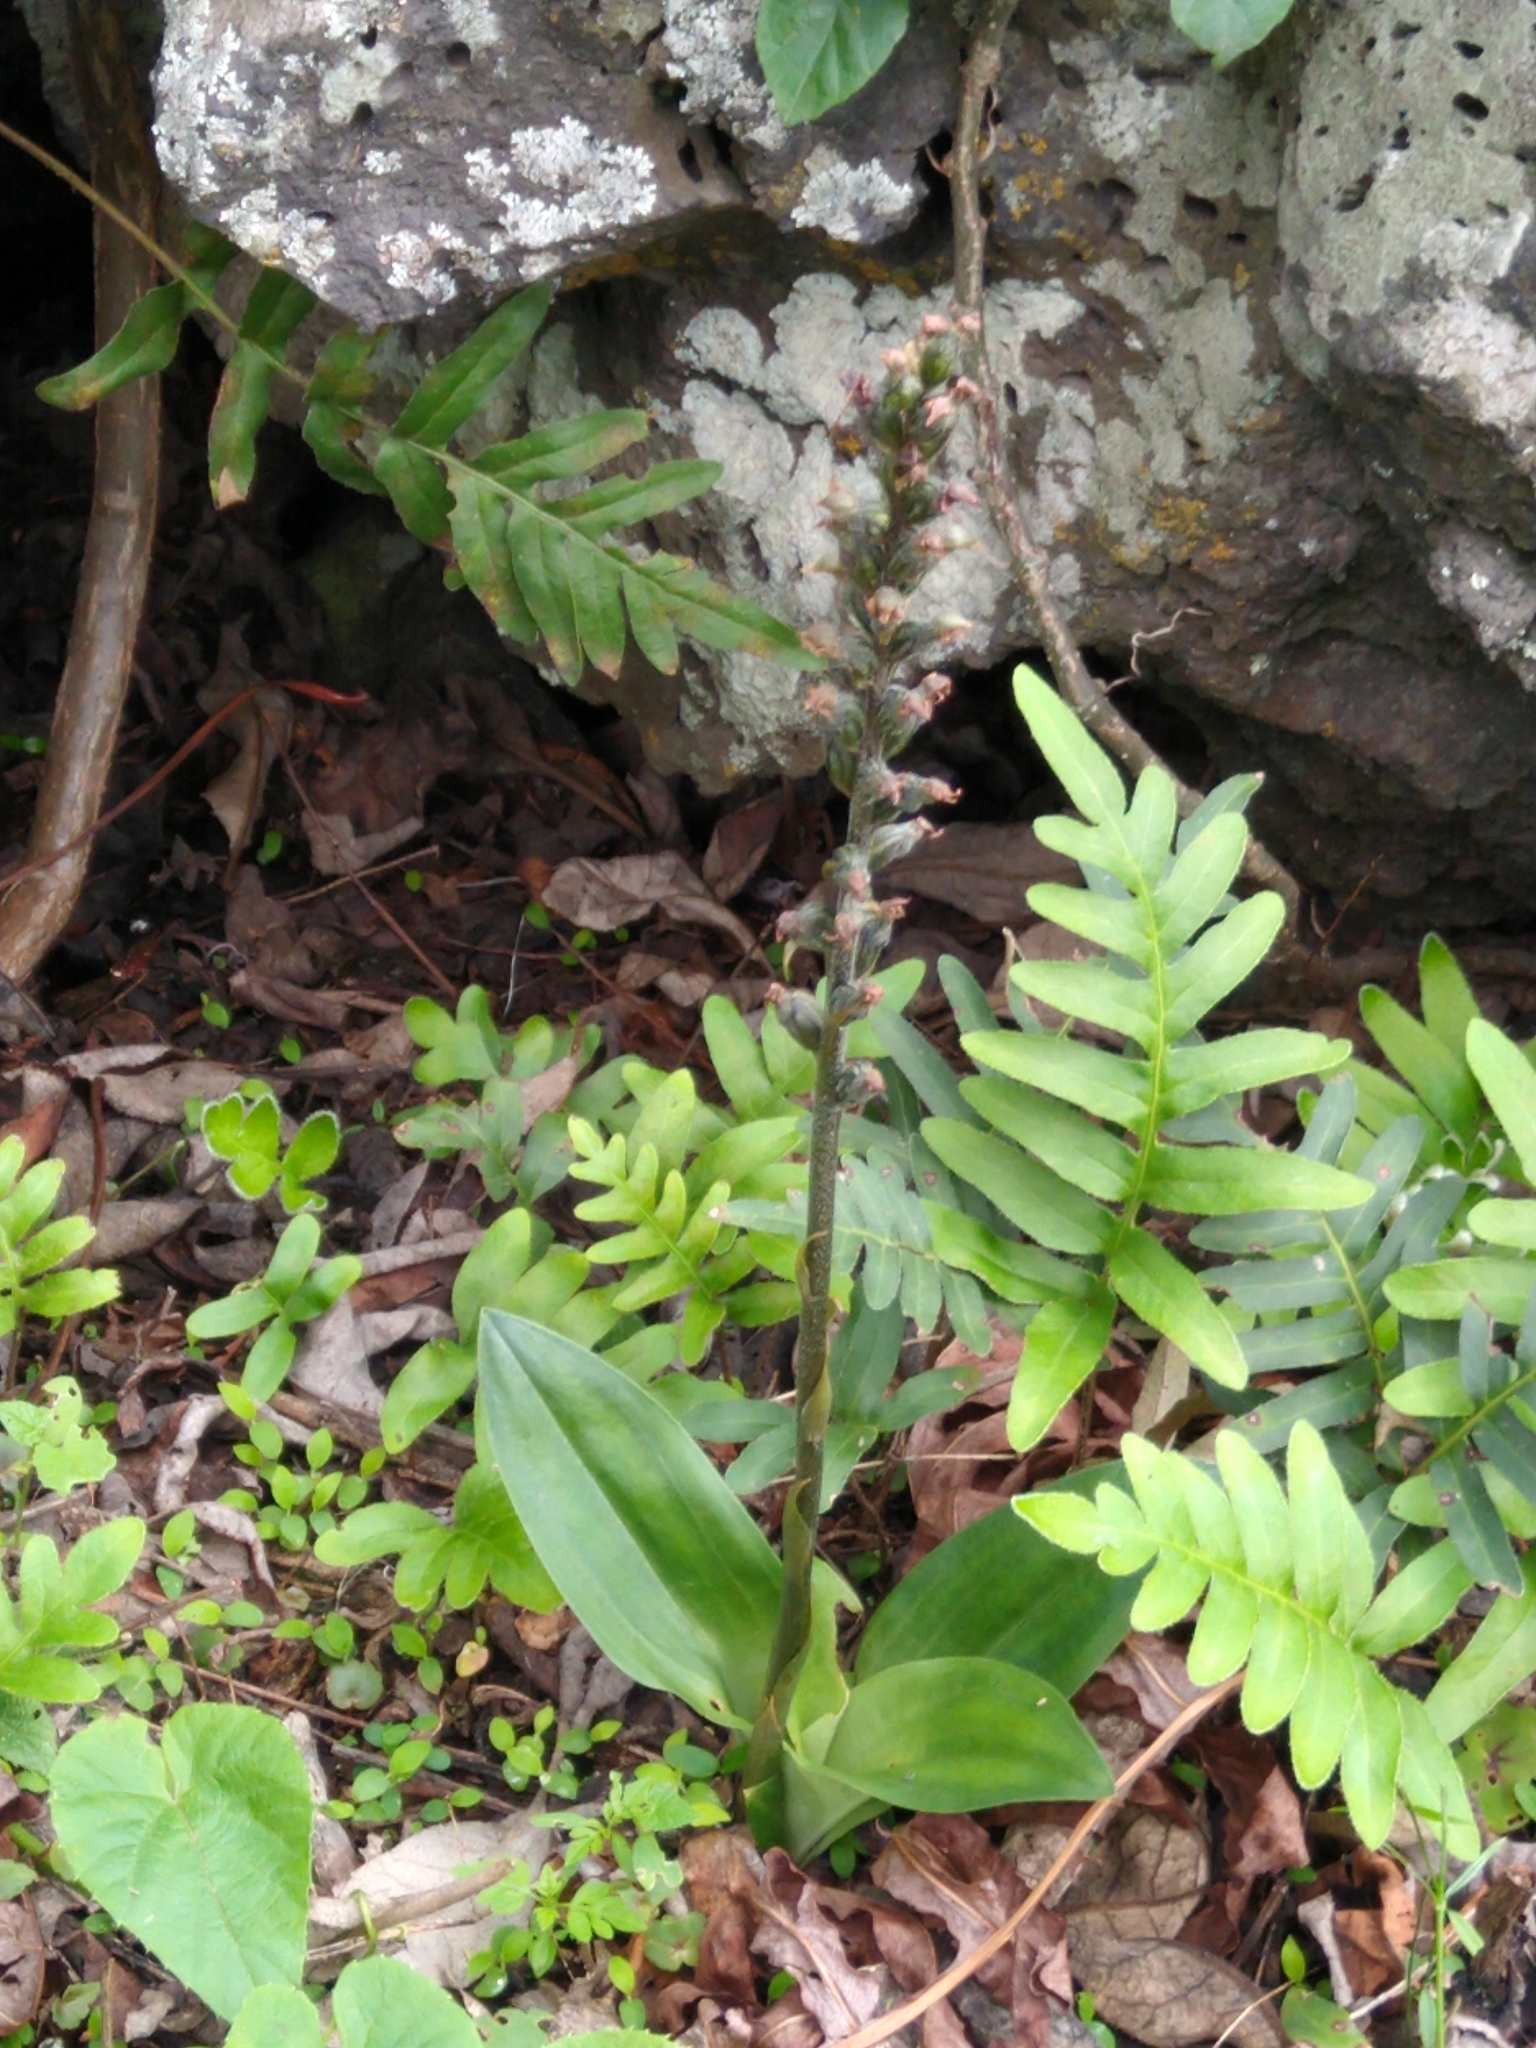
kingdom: Plantae
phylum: Tracheophyta
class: Liliopsida
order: Asparagales
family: Orchidaceae
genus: Sarcoglottis
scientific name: Sarcoglottis schaffneri
